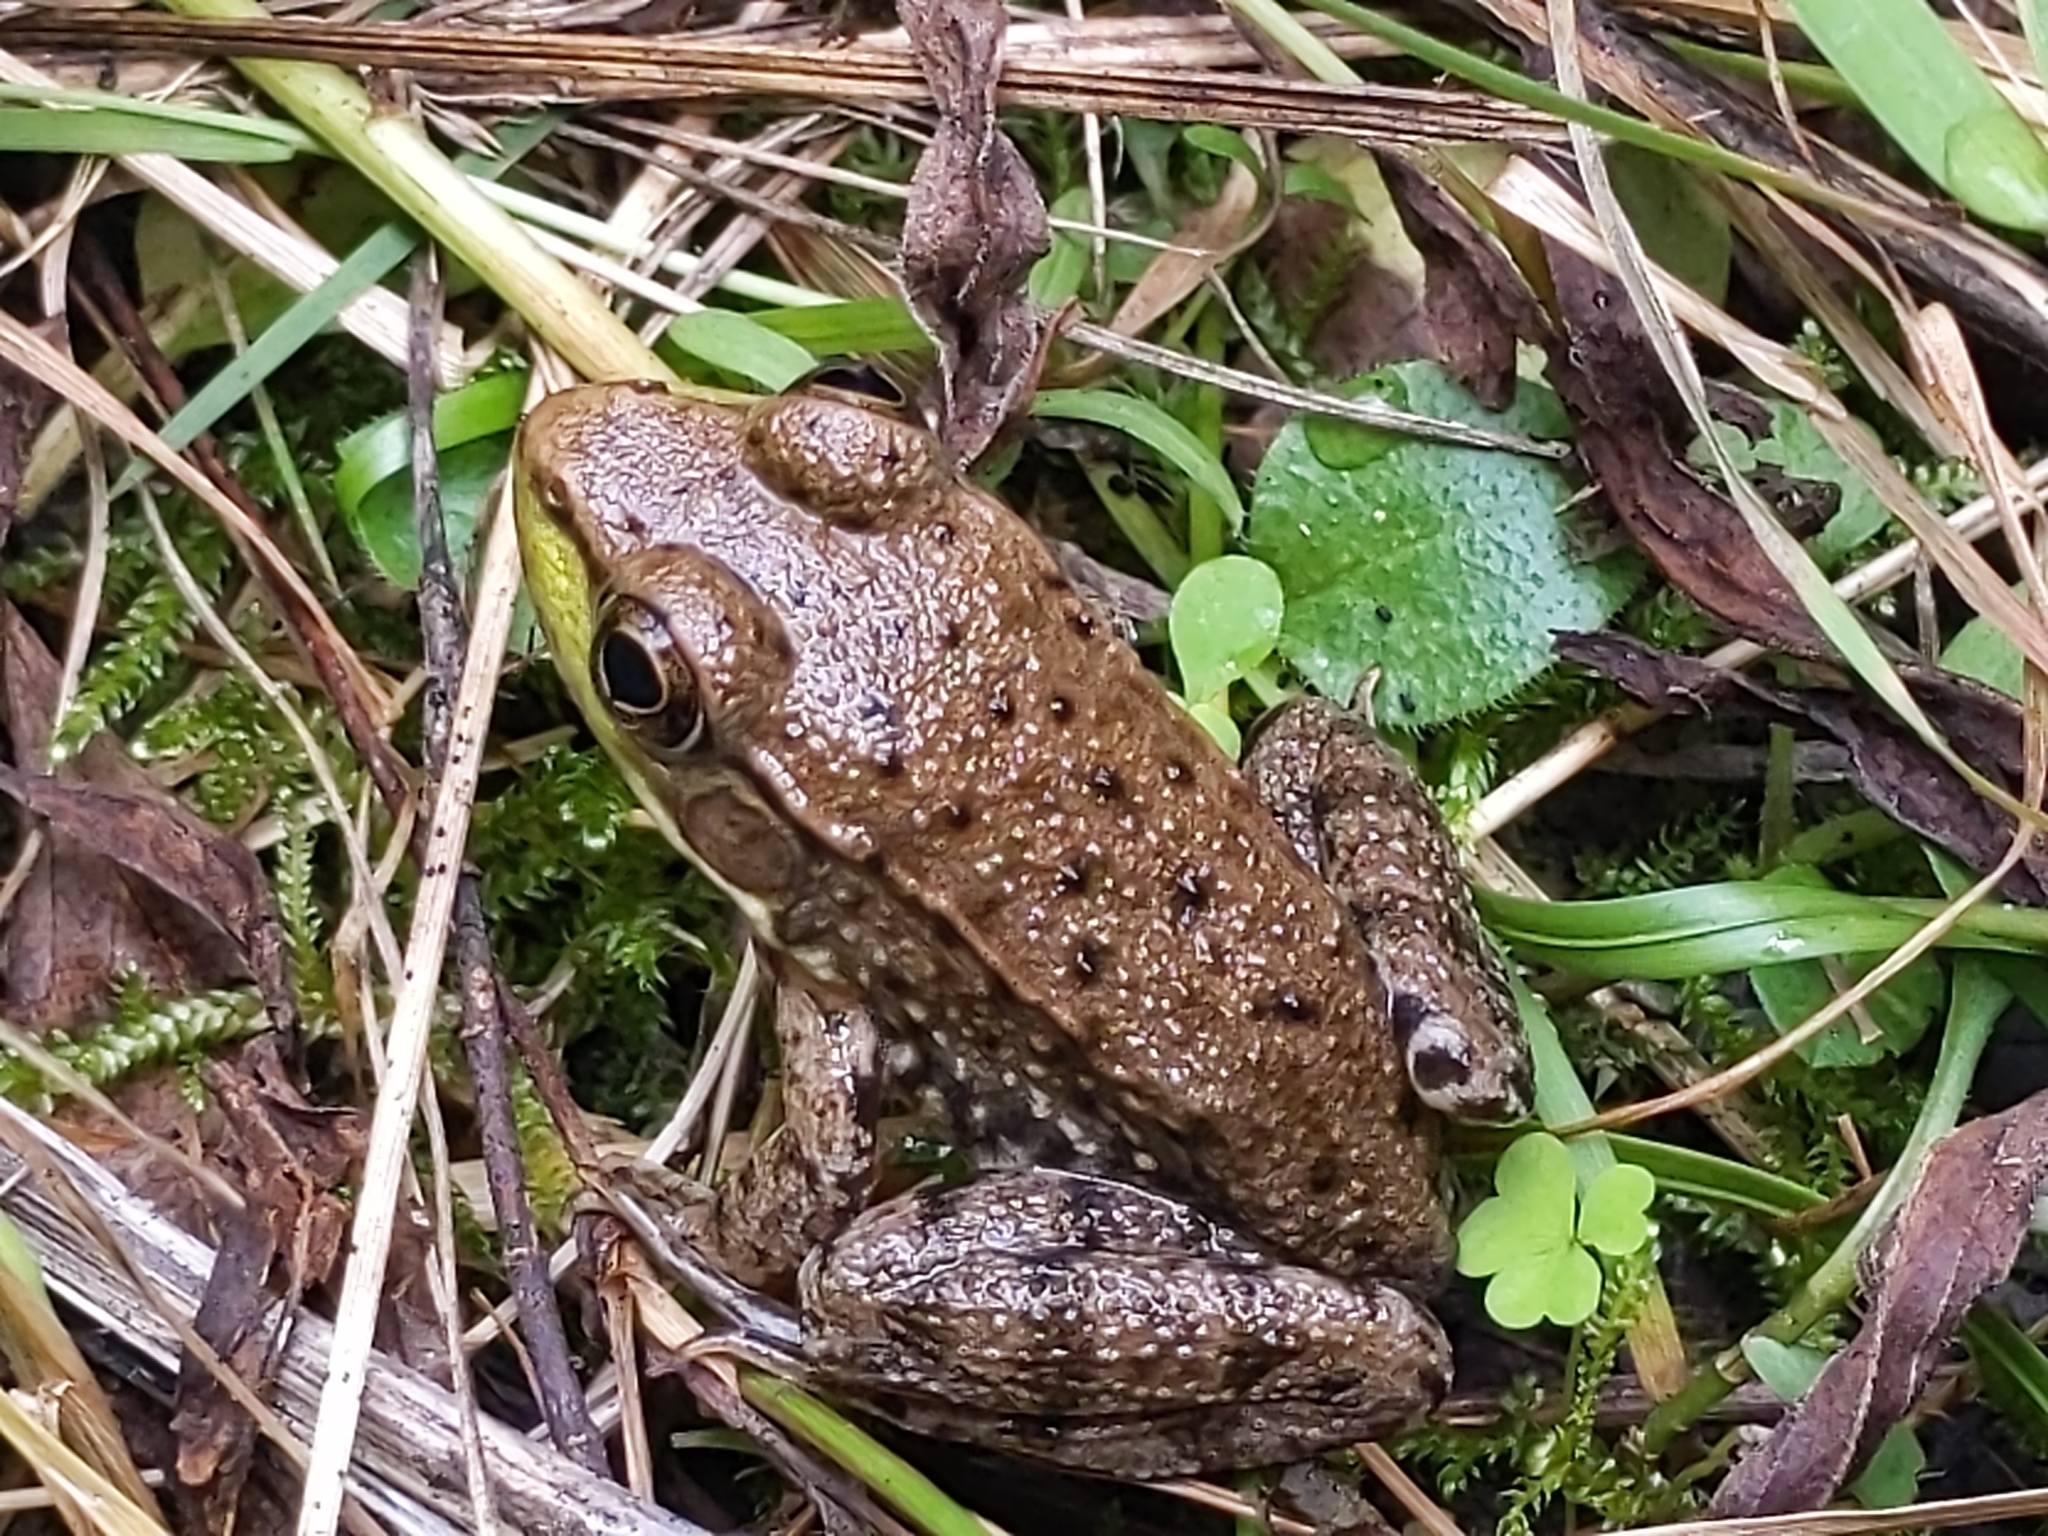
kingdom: Animalia
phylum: Chordata
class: Amphibia
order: Anura
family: Ranidae
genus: Lithobates
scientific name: Lithobates clamitans
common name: Green frog
